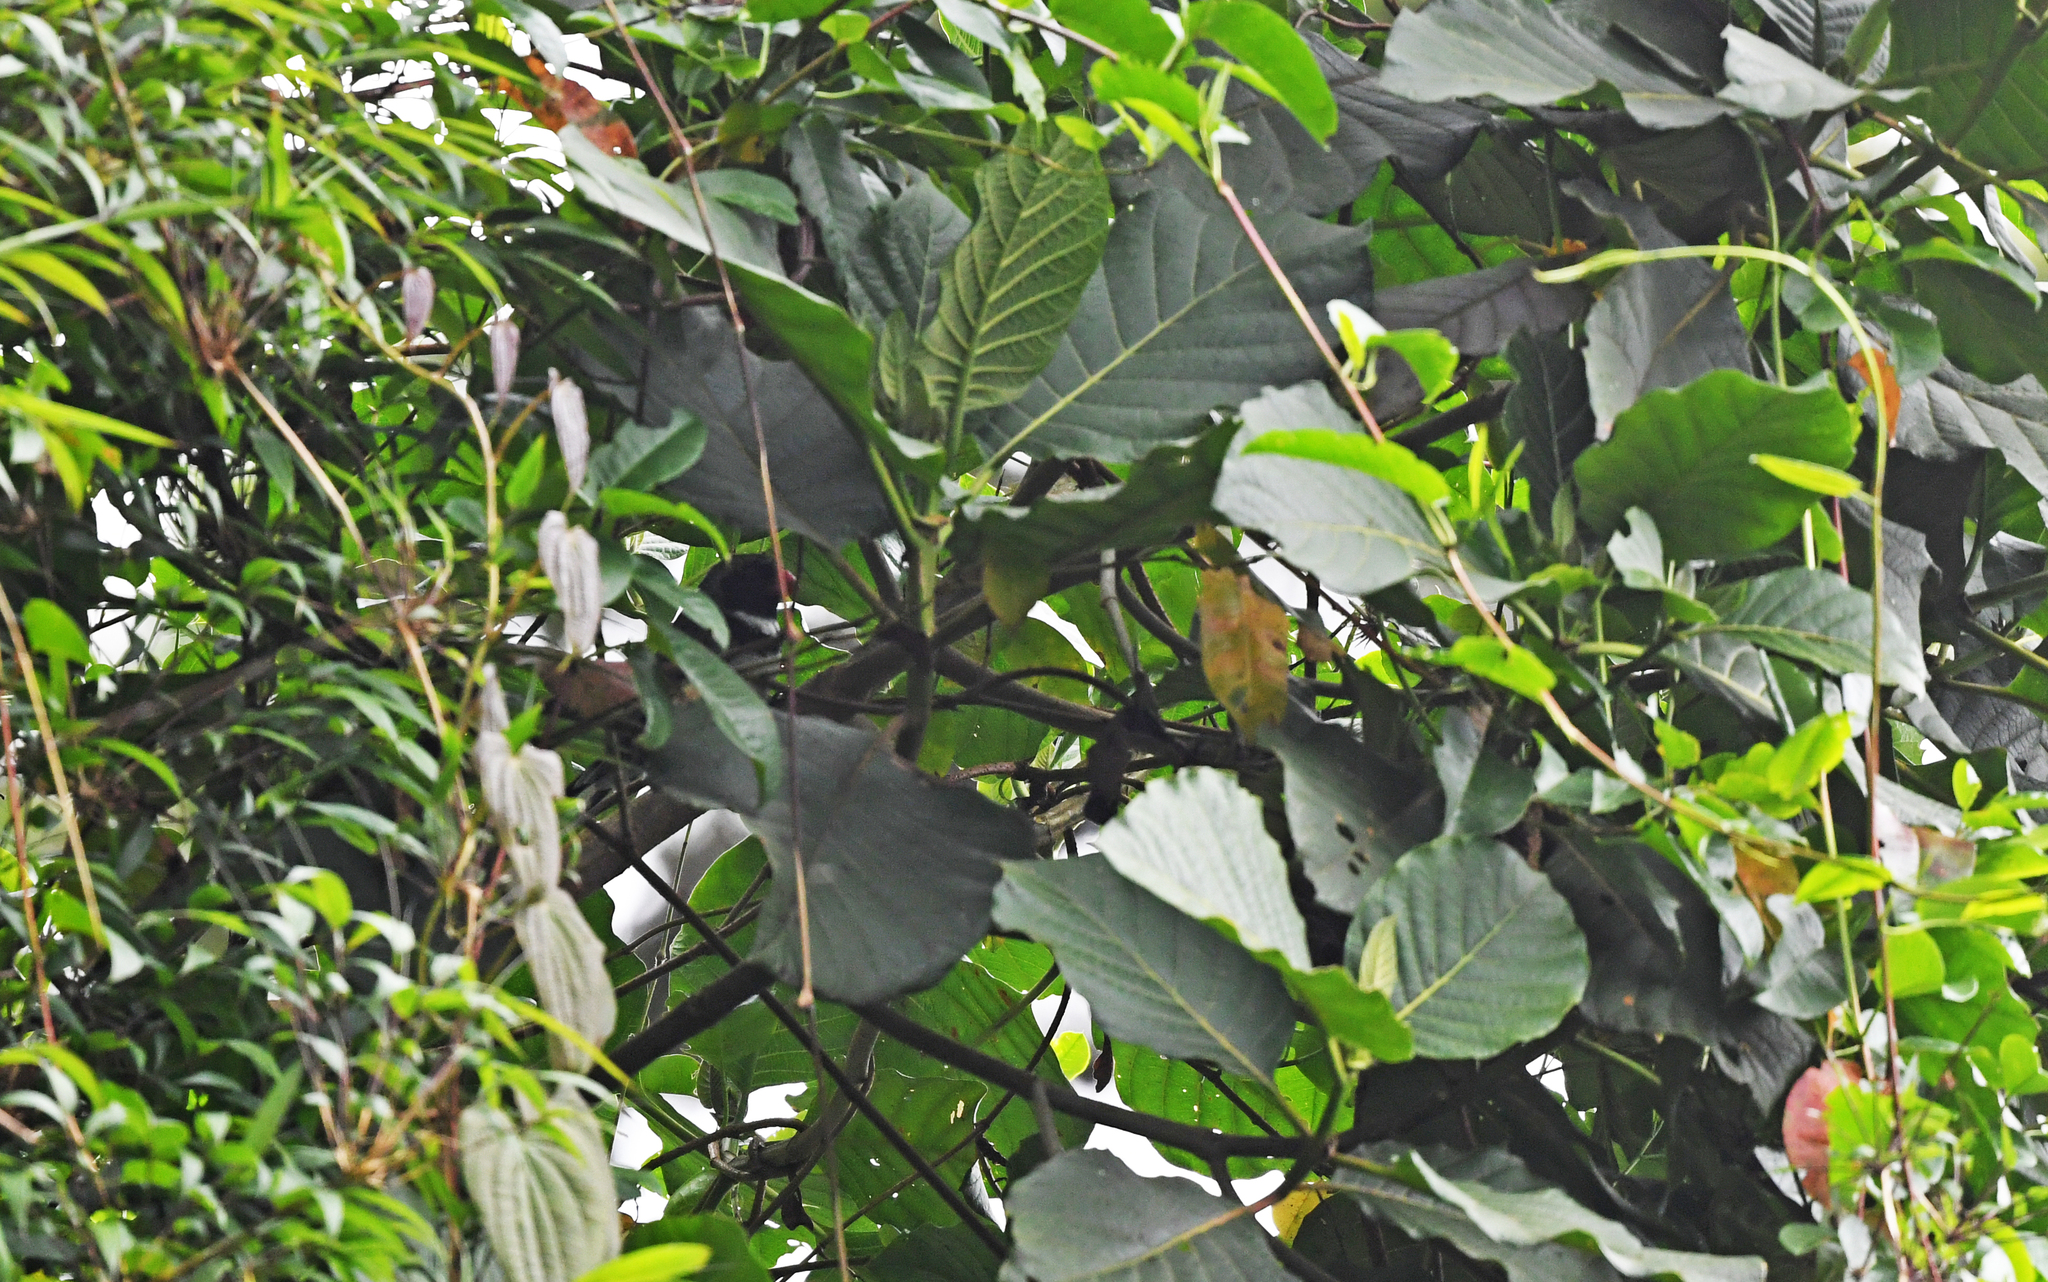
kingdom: Animalia
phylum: Chordata
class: Aves
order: Passeriformes
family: Thraupidae
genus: Saltator
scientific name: Saltator cinctus
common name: Masked saltator
